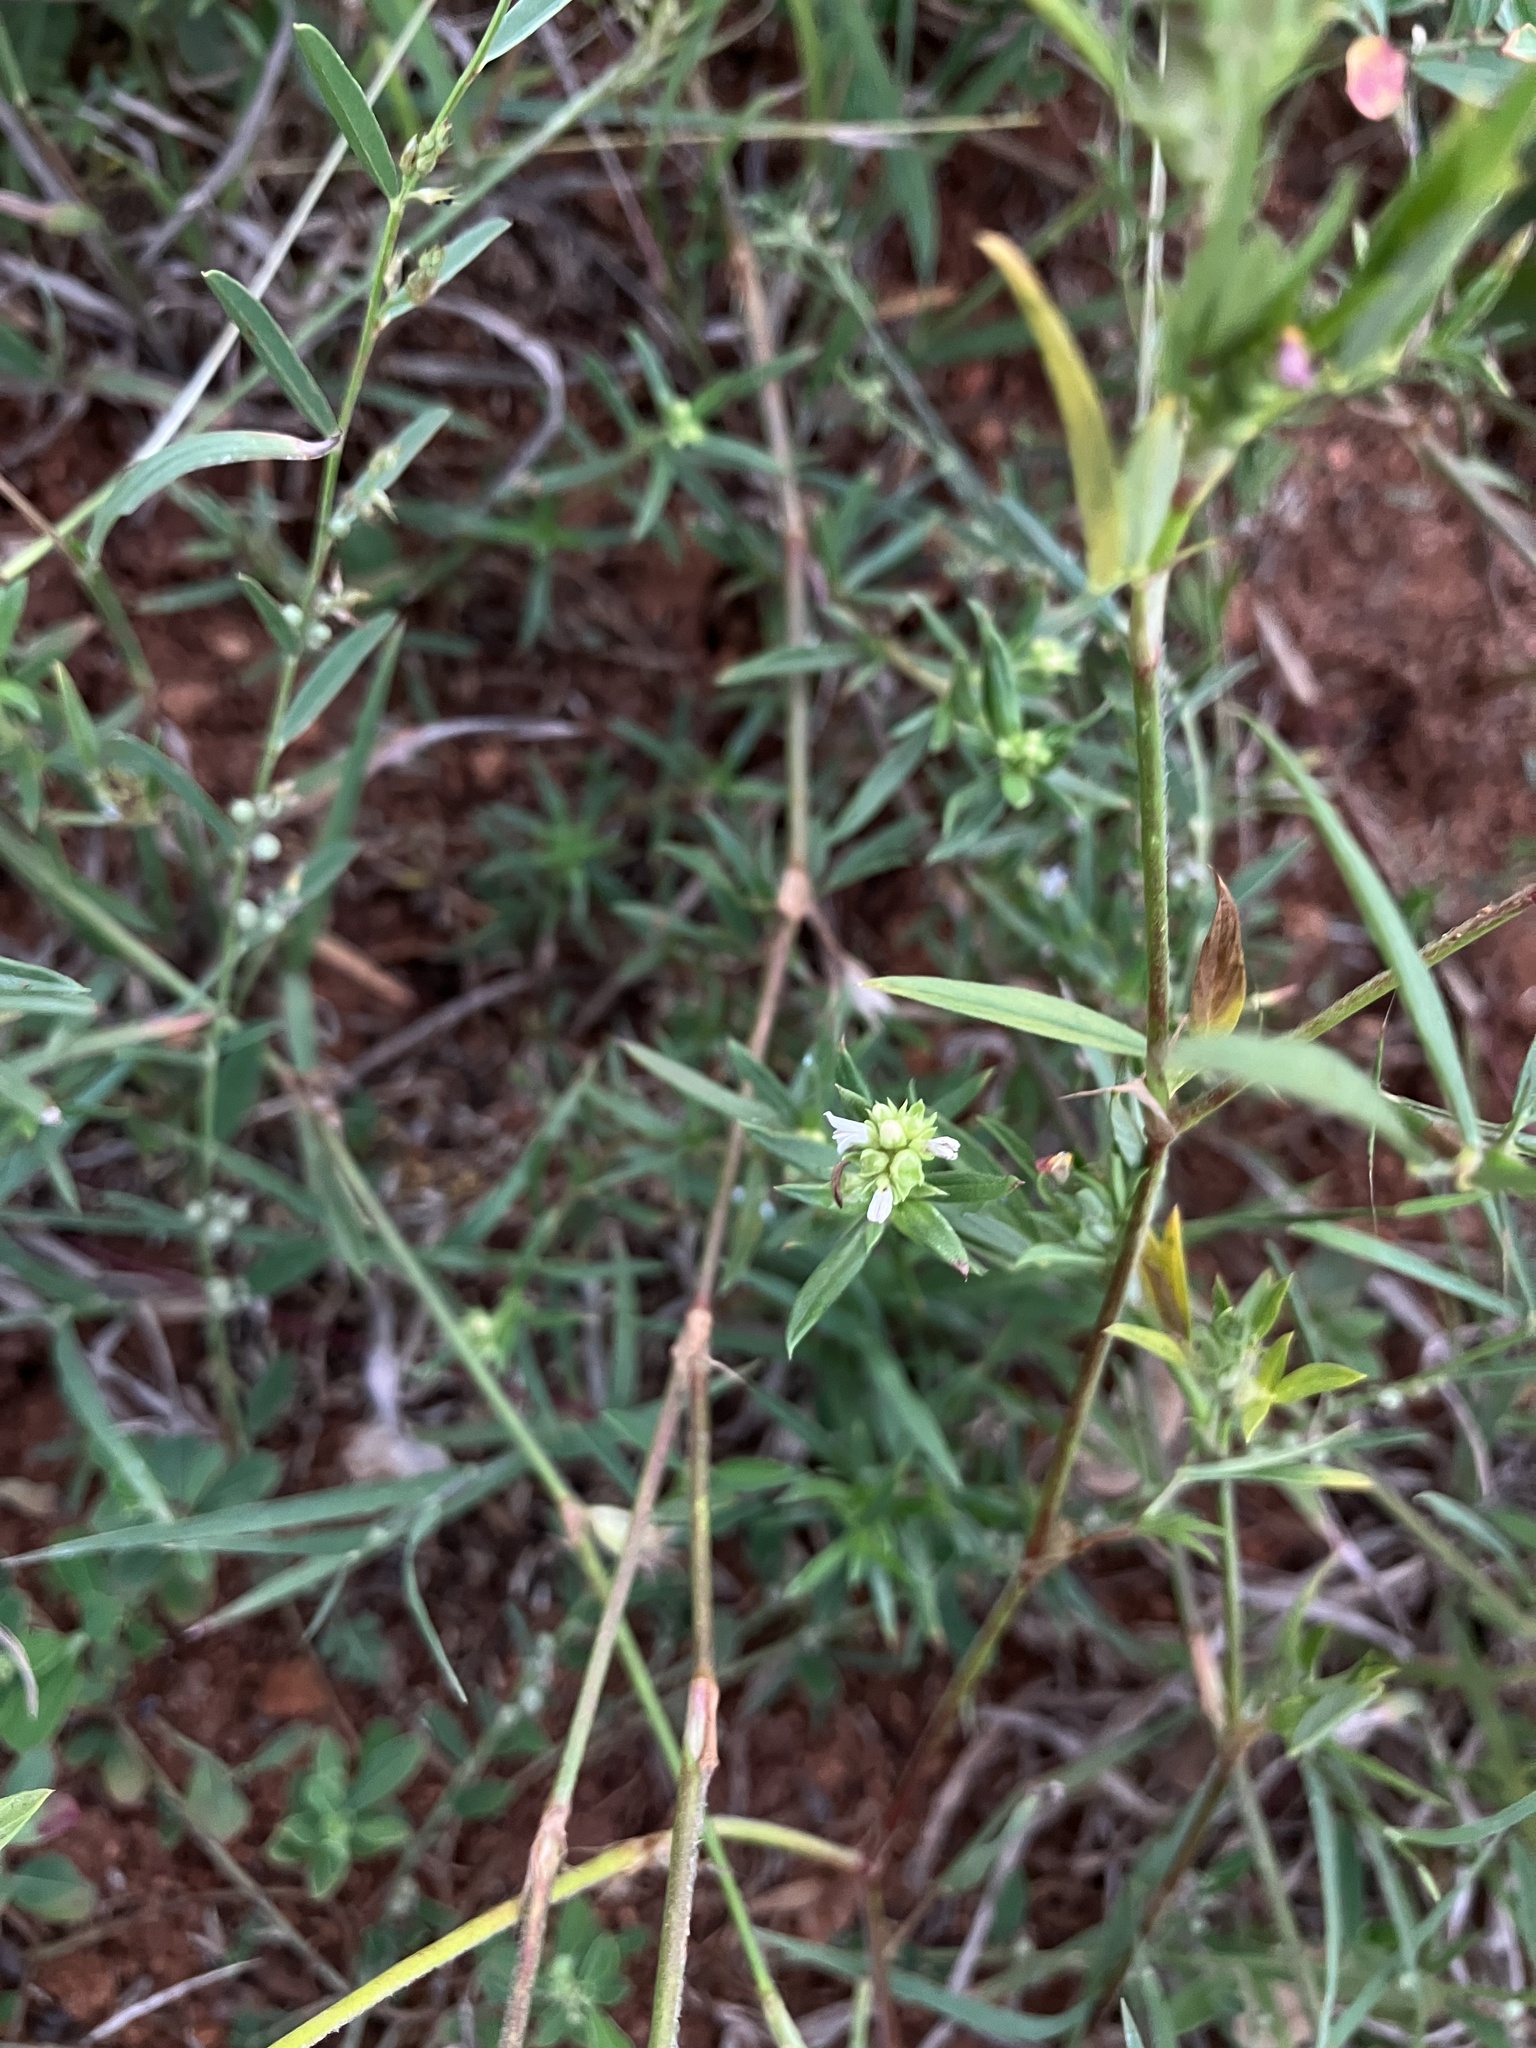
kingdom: Plantae
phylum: Tracheophyta
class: Magnoliopsida
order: Gentianales
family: Rubiaceae
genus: Oldenlandia
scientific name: Oldenlandia umbellata
